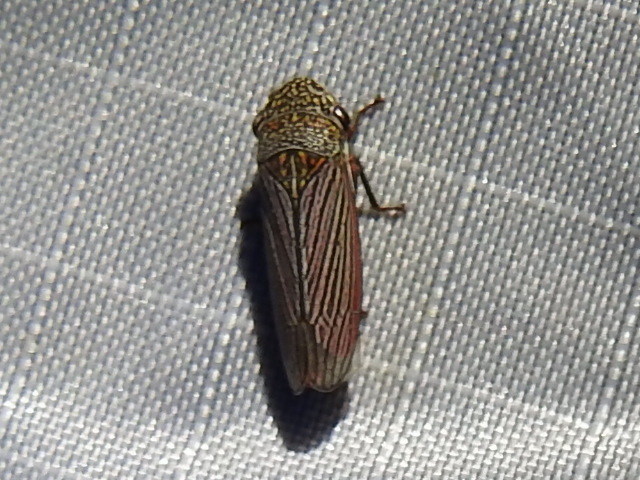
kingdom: Animalia
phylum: Arthropoda
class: Insecta
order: Hemiptera
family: Cicadellidae
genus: Cuerna
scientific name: Cuerna costalis
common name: Lateral-lined sharpshooter
